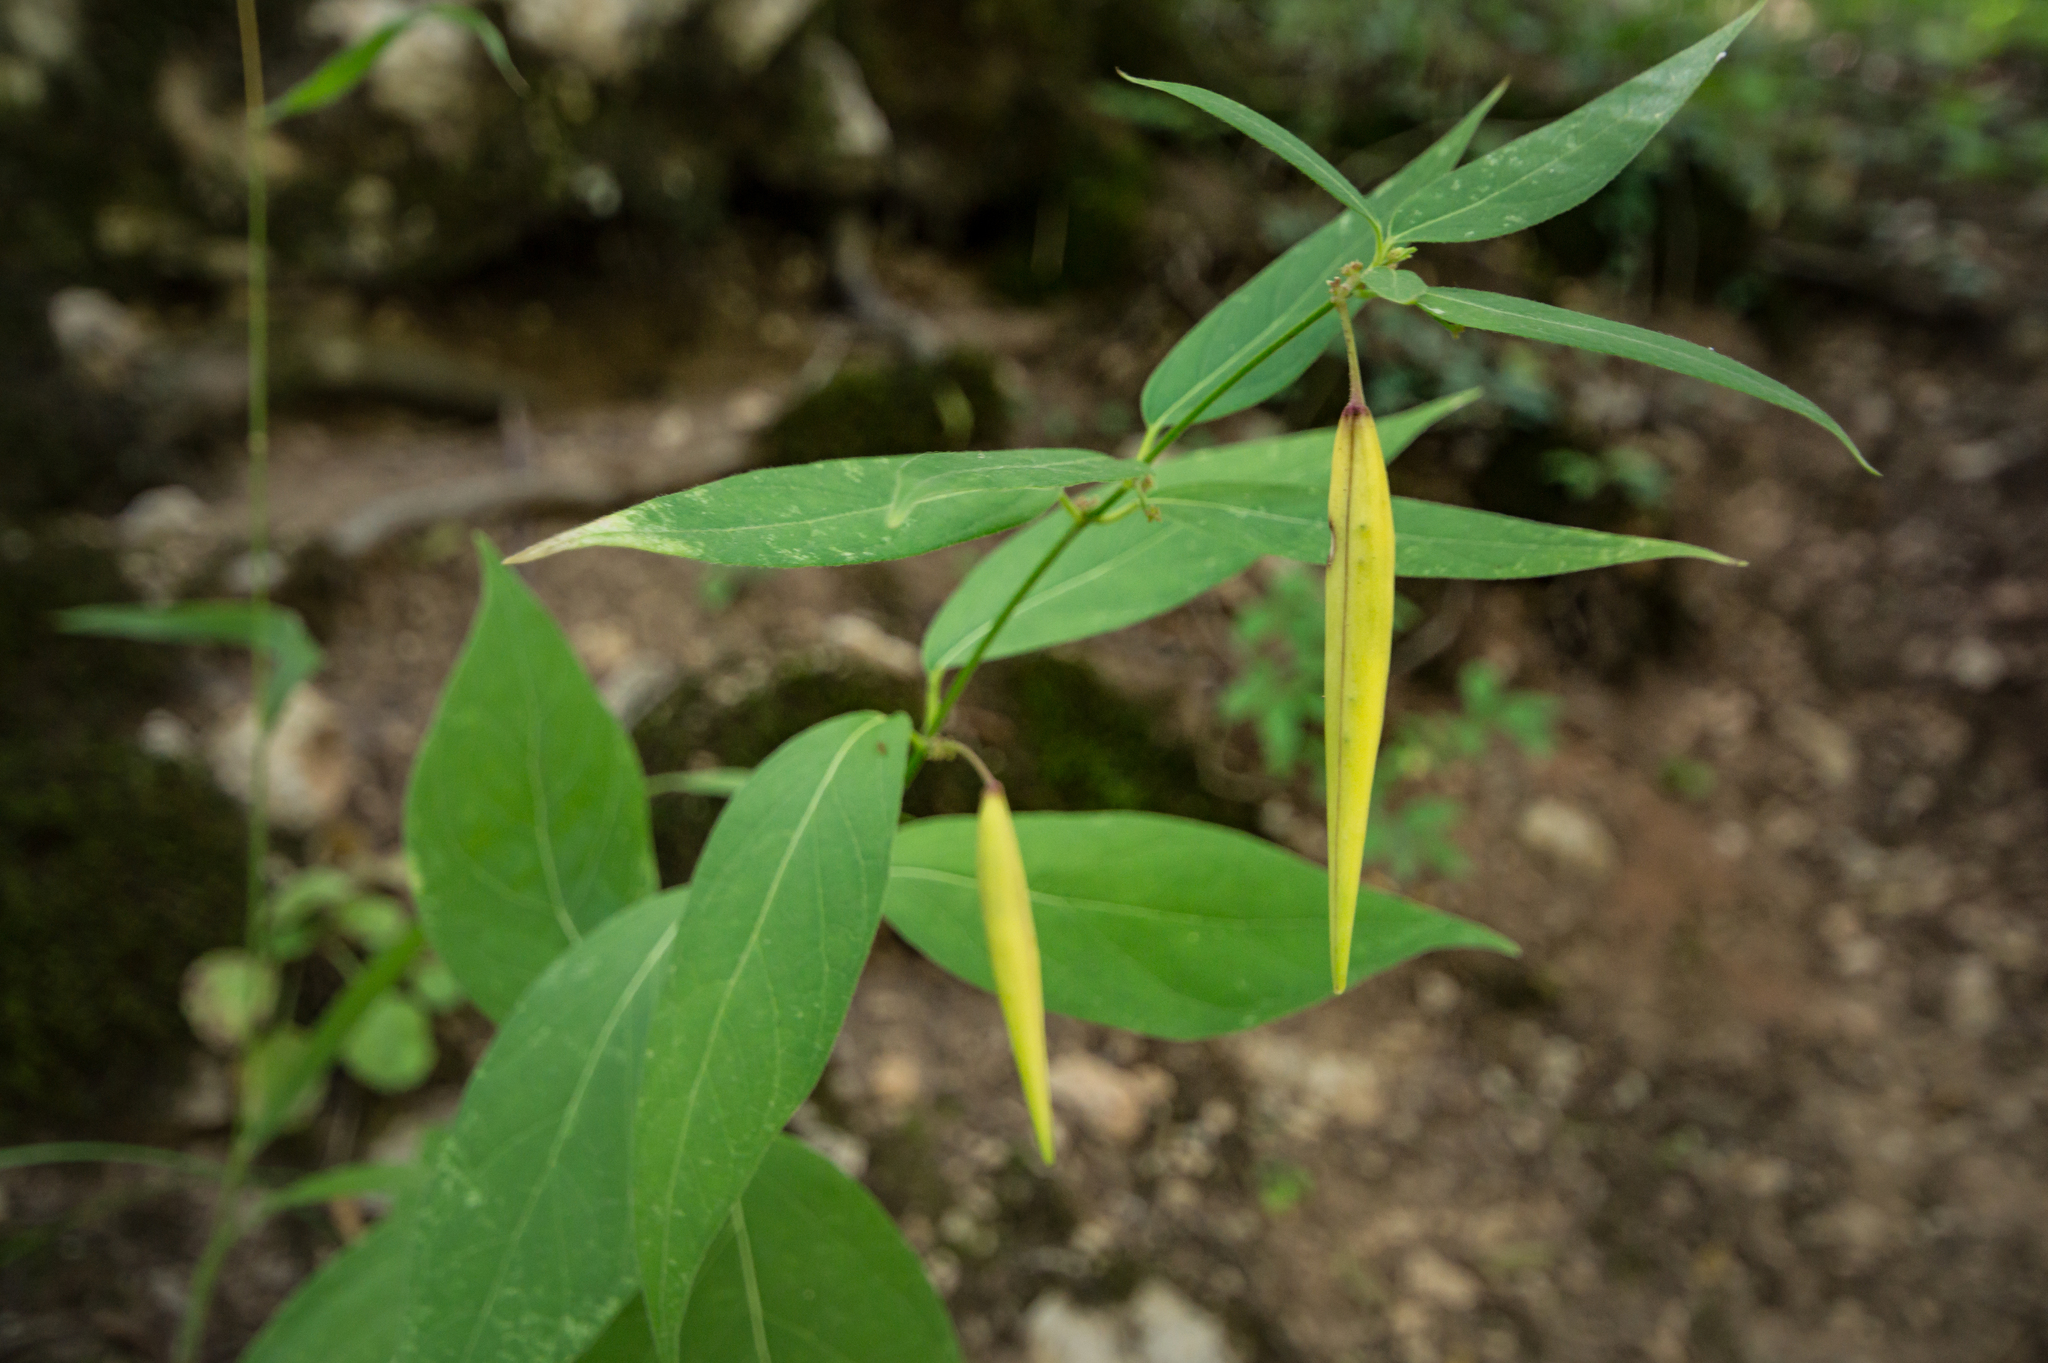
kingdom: Plantae
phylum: Tracheophyta
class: Magnoliopsida
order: Gentianales
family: Apocynaceae
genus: Vincetoxicum
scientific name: Vincetoxicum scandens
